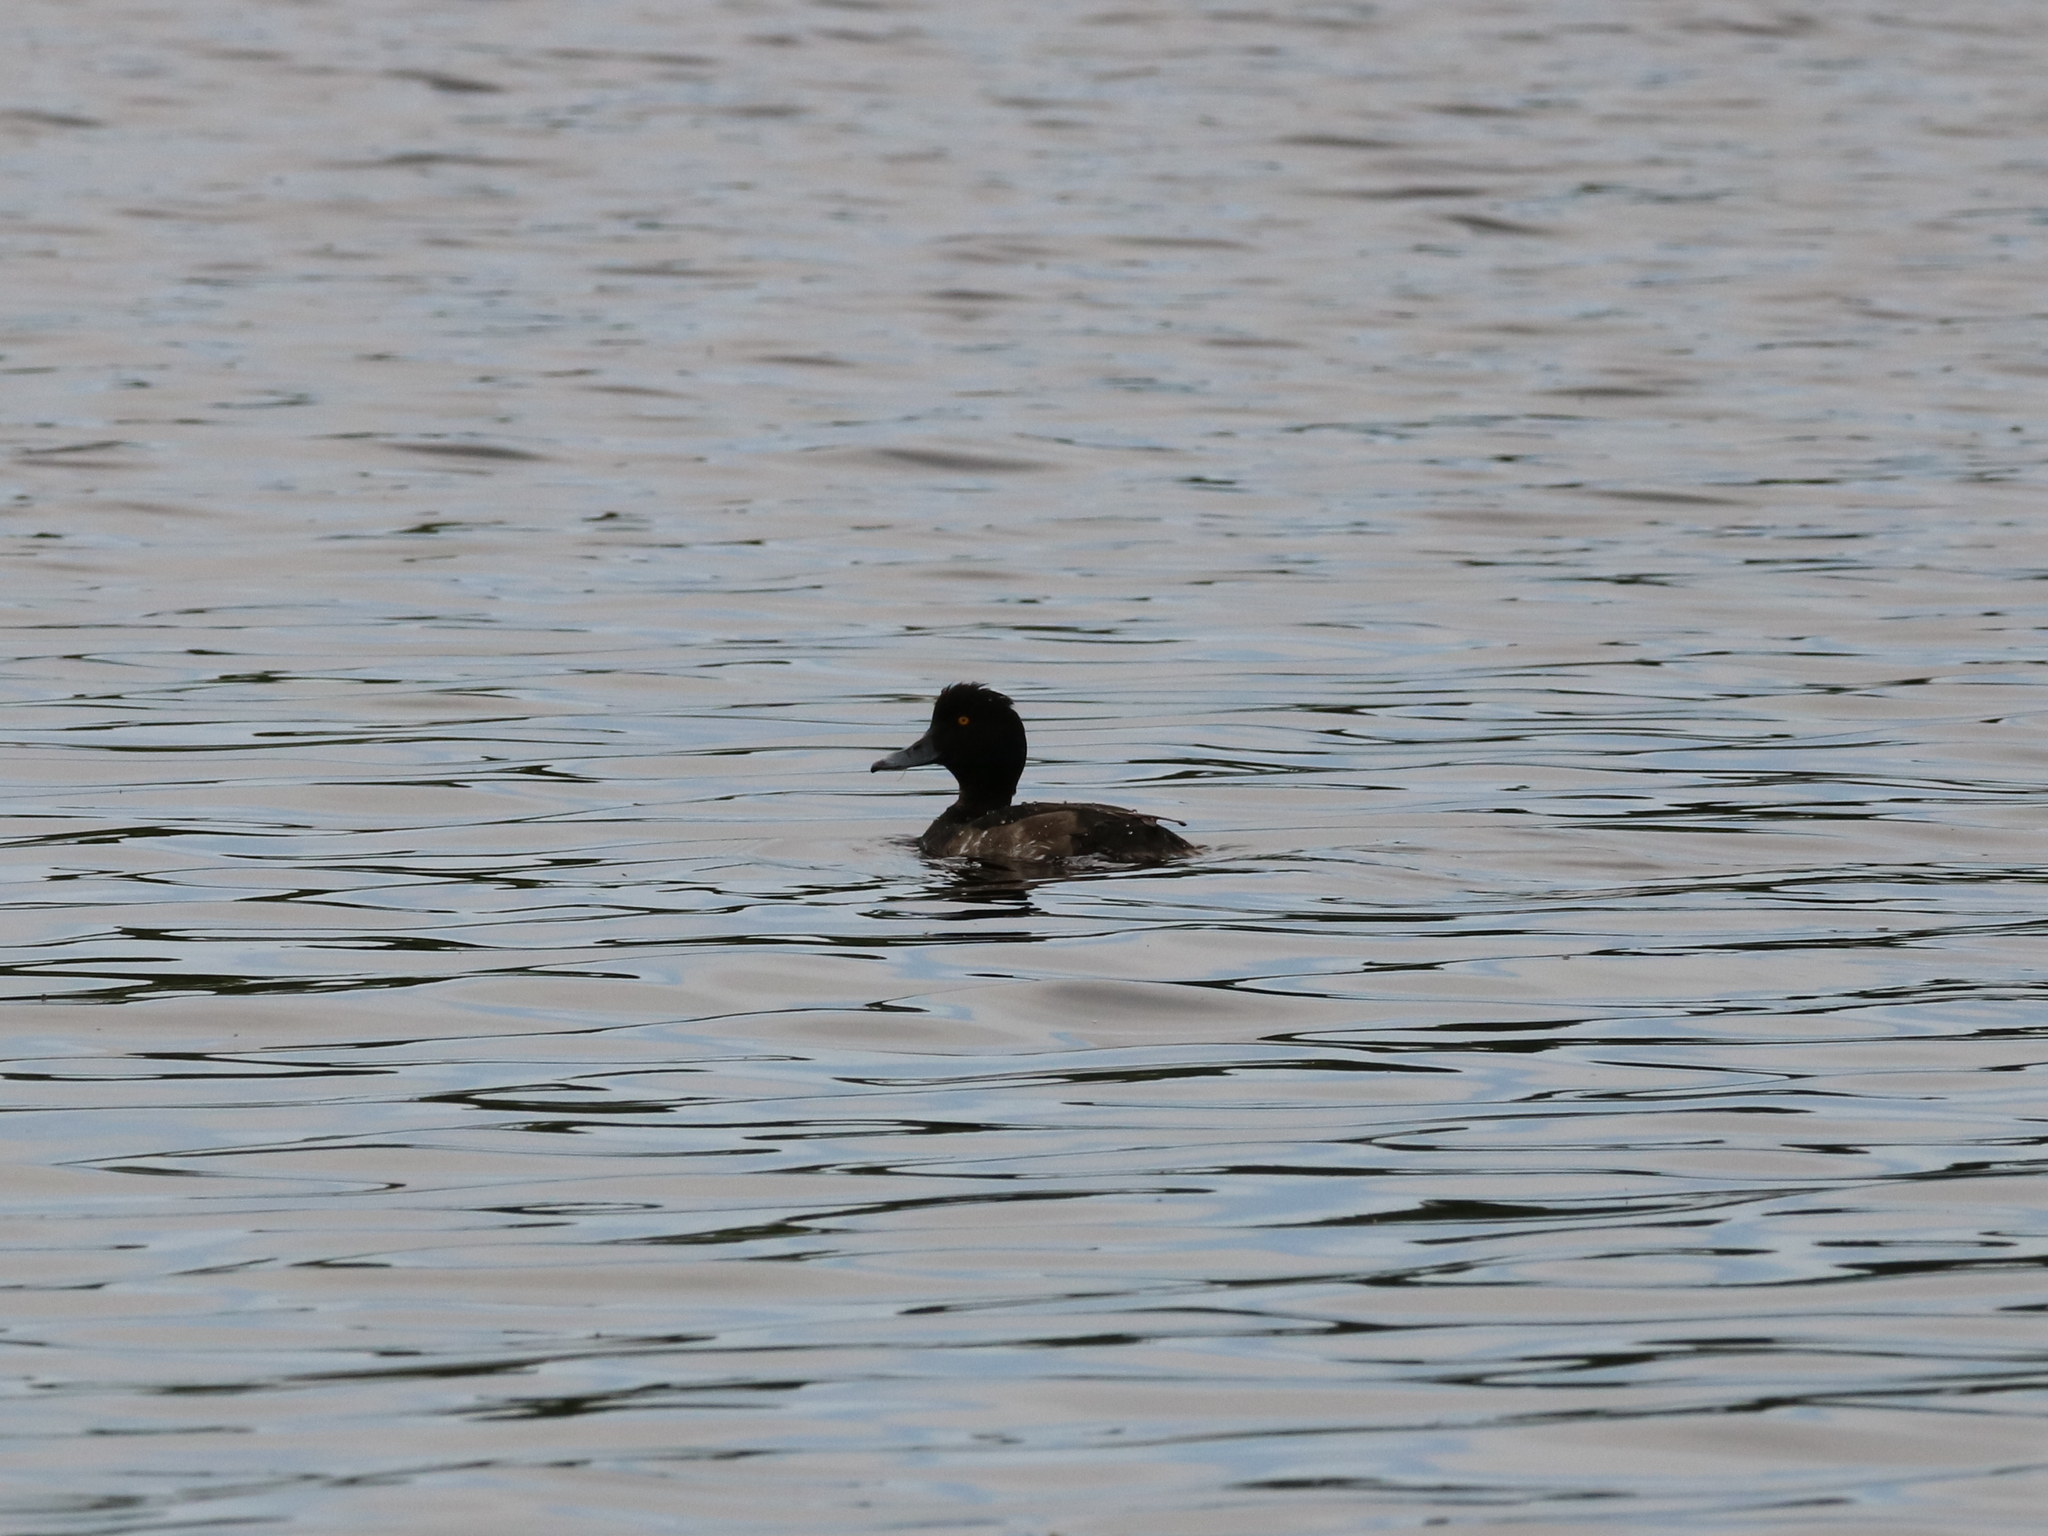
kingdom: Animalia
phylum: Chordata
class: Aves
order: Anseriformes
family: Anatidae
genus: Aythya
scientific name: Aythya fuligula
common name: Tufted duck
